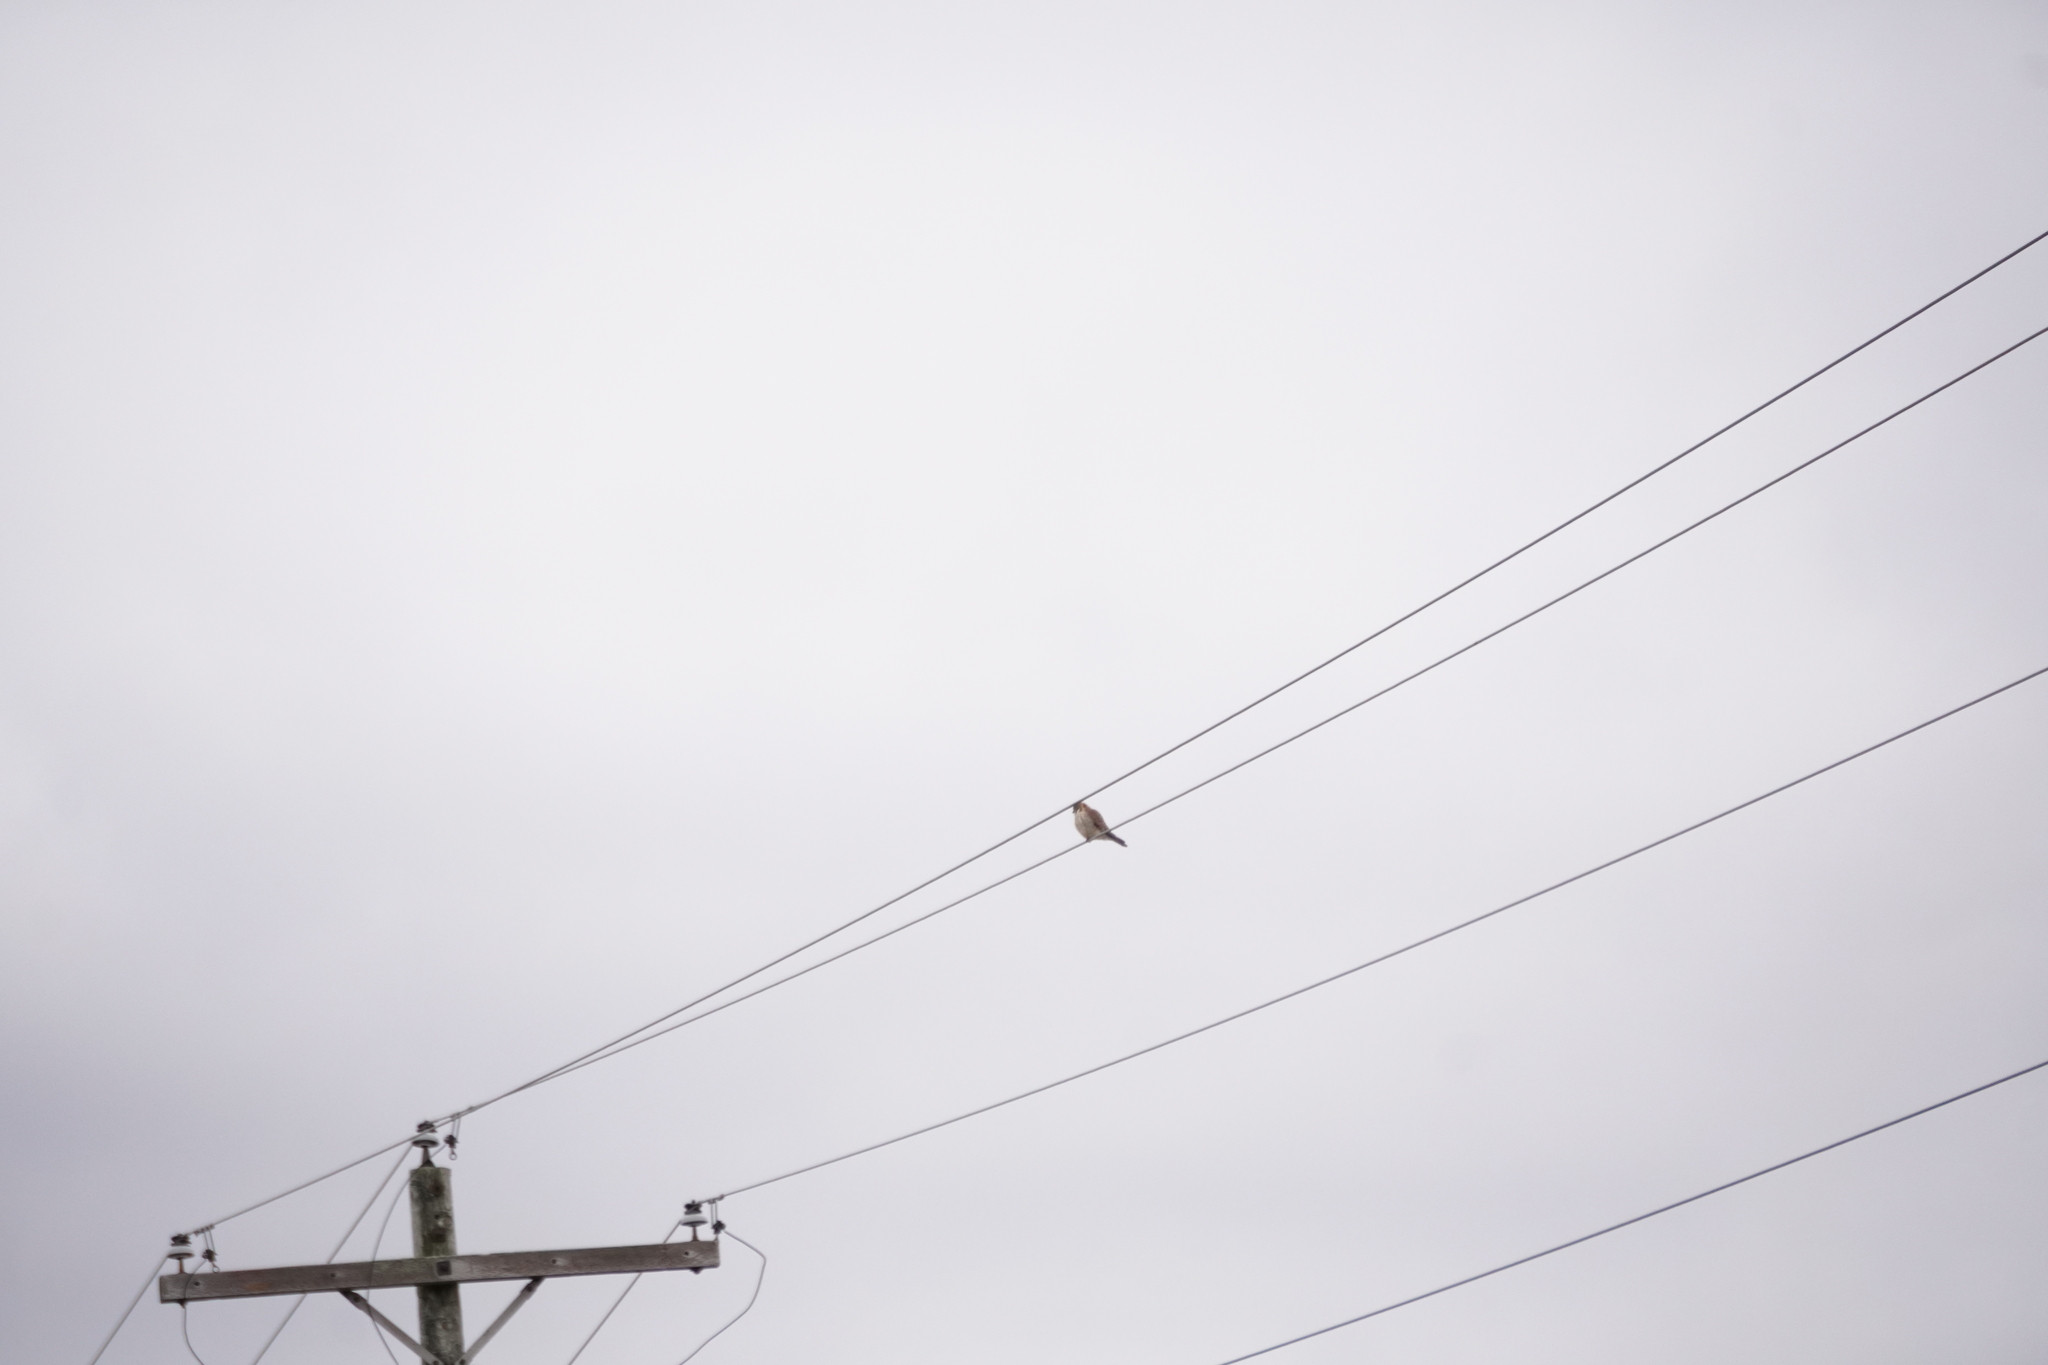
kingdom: Animalia
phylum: Chordata
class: Aves
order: Falconiformes
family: Falconidae
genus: Falco
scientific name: Falco sparverius
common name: American kestrel
